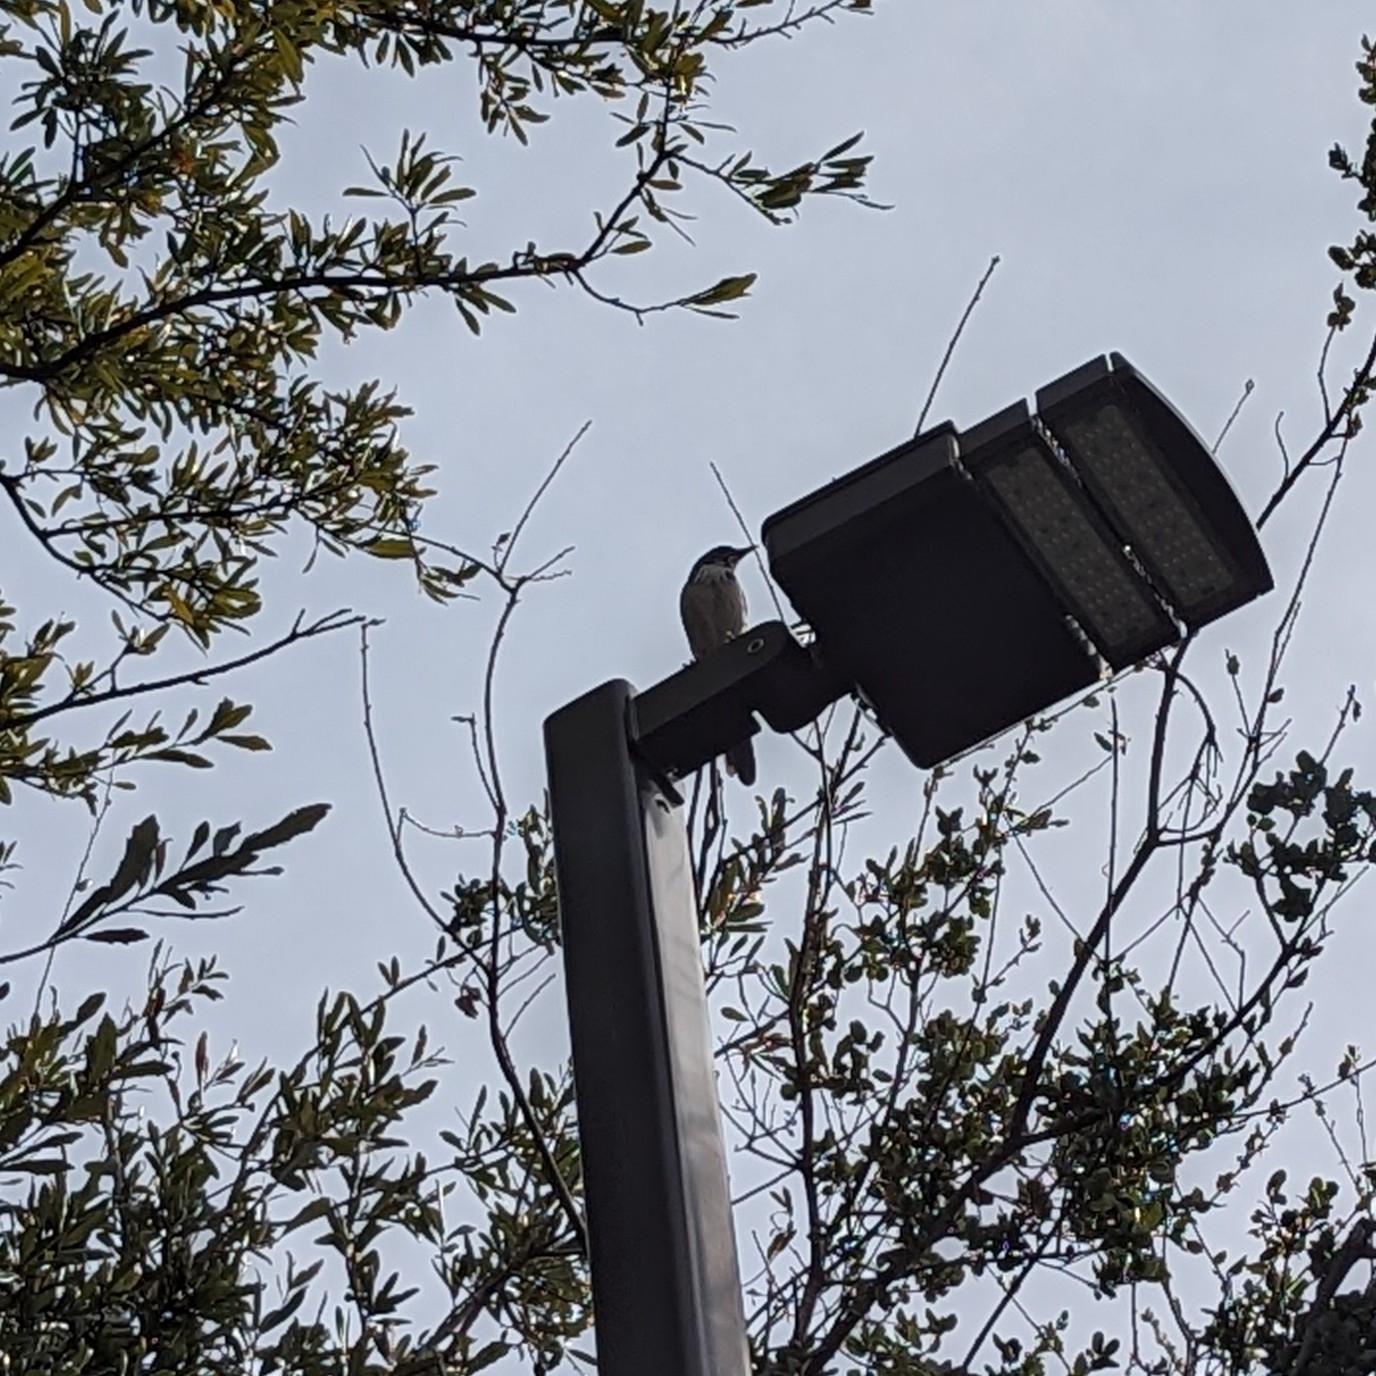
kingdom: Animalia
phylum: Chordata
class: Aves
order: Passeriformes
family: Corvidae
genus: Aphelocoma
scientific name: Aphelocoma californica
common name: California scrub-jay
